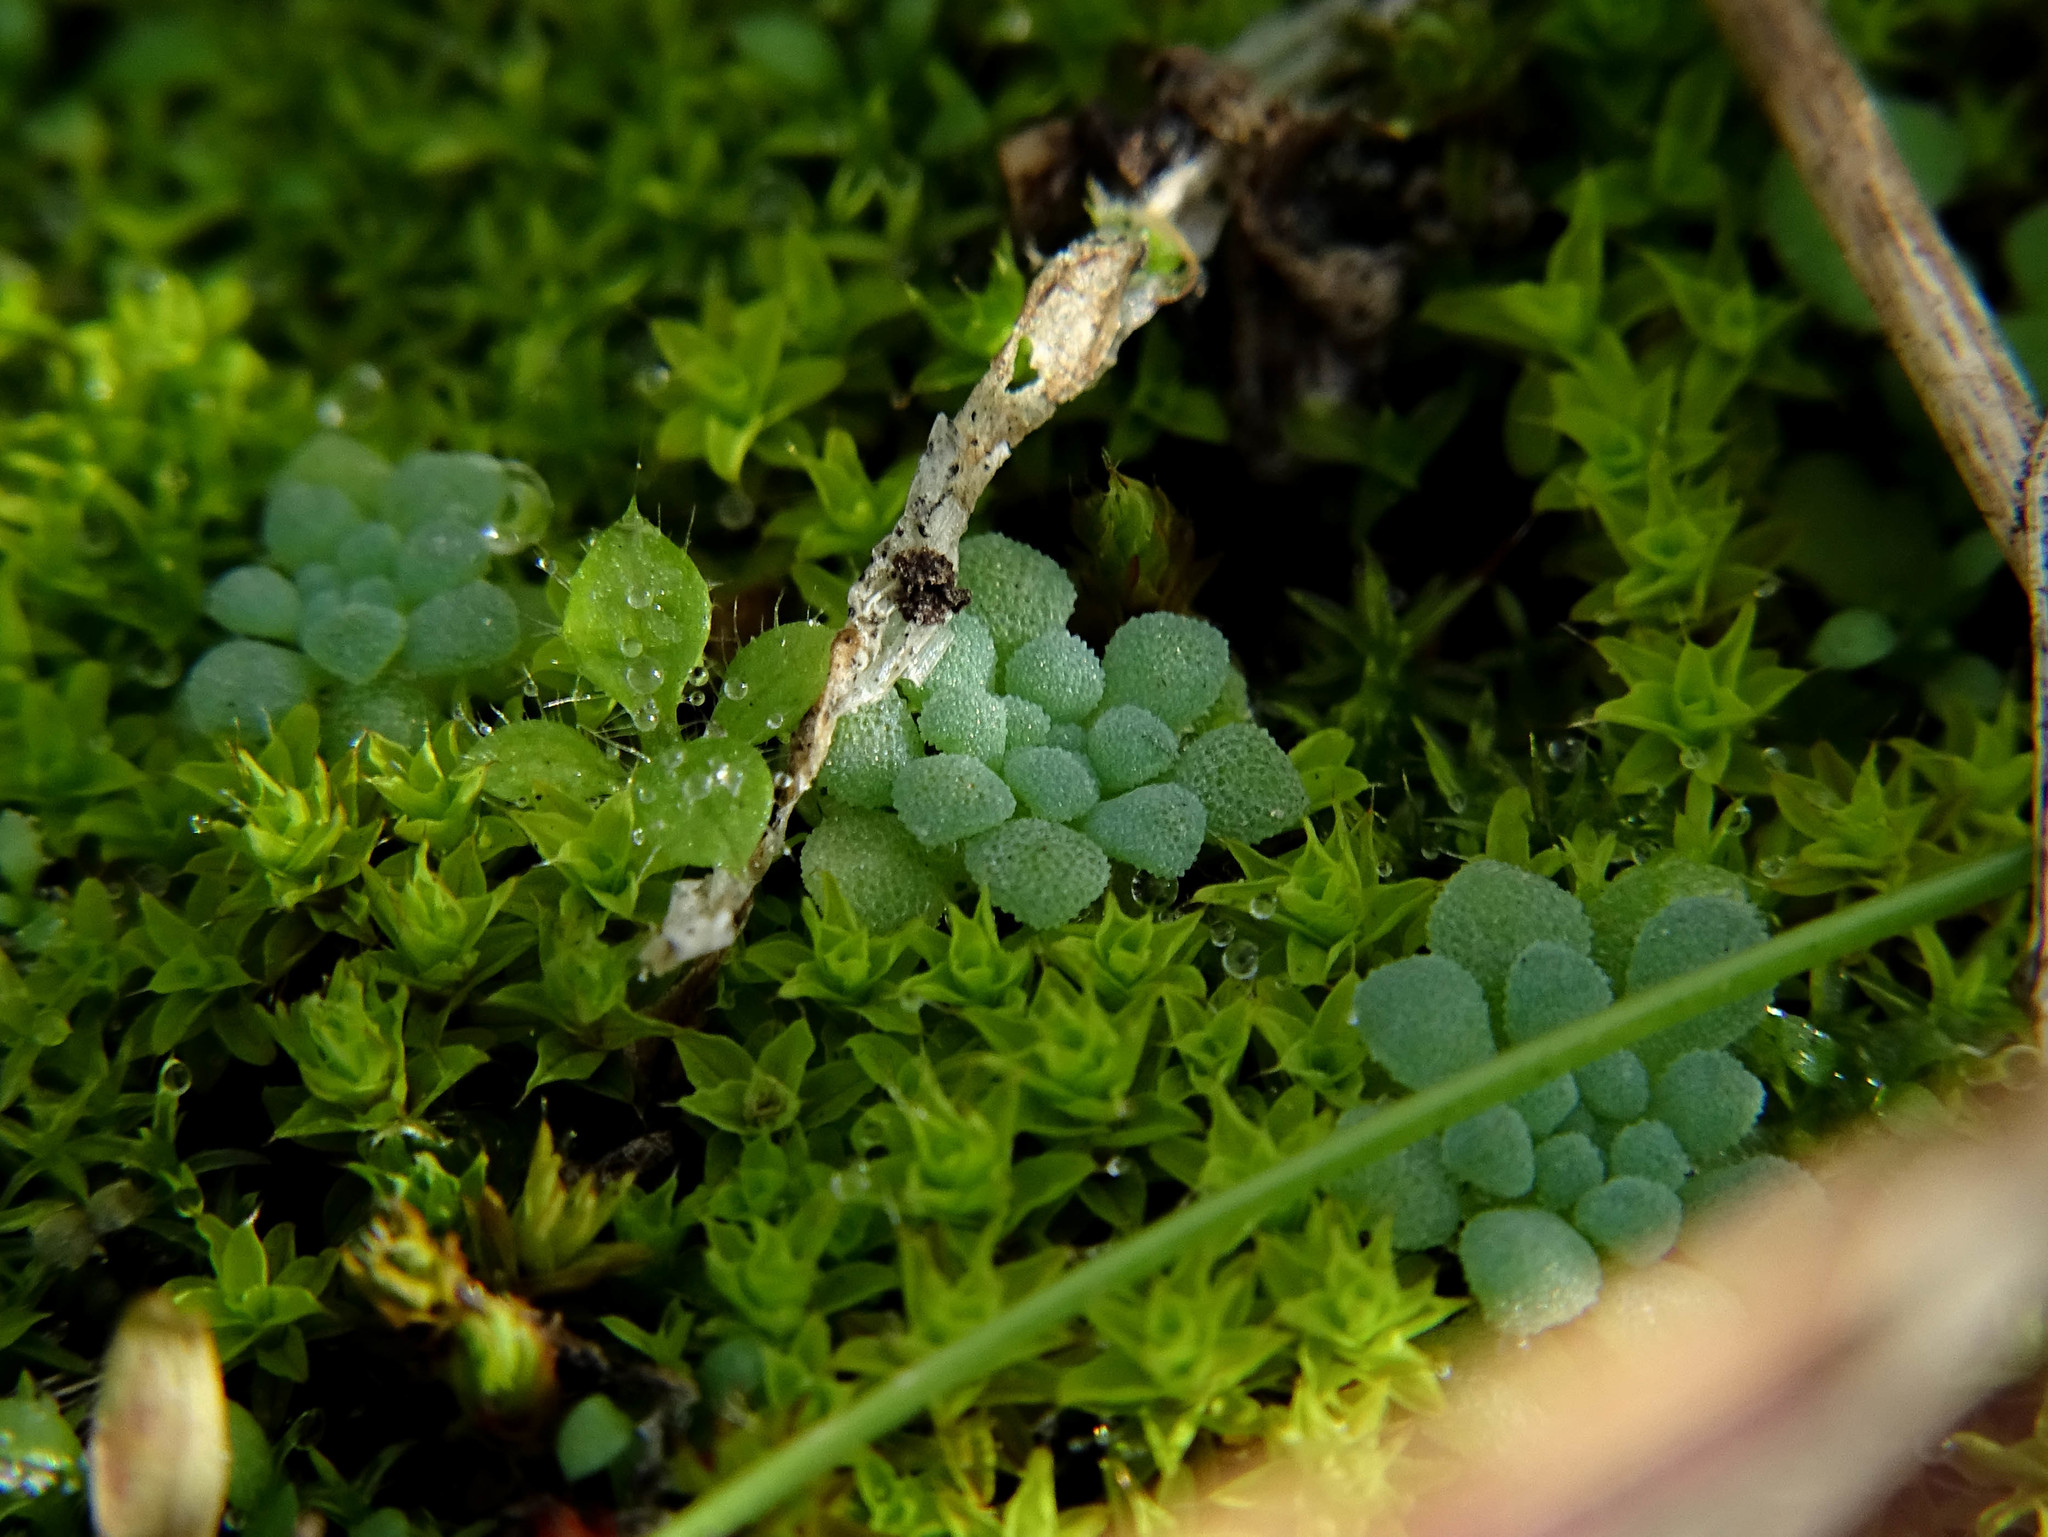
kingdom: Plantae
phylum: Tracheophyta
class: Magnoliopsida
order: Saxifragales
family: Crassulaceae
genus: Sedum
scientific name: Sedum rubens
